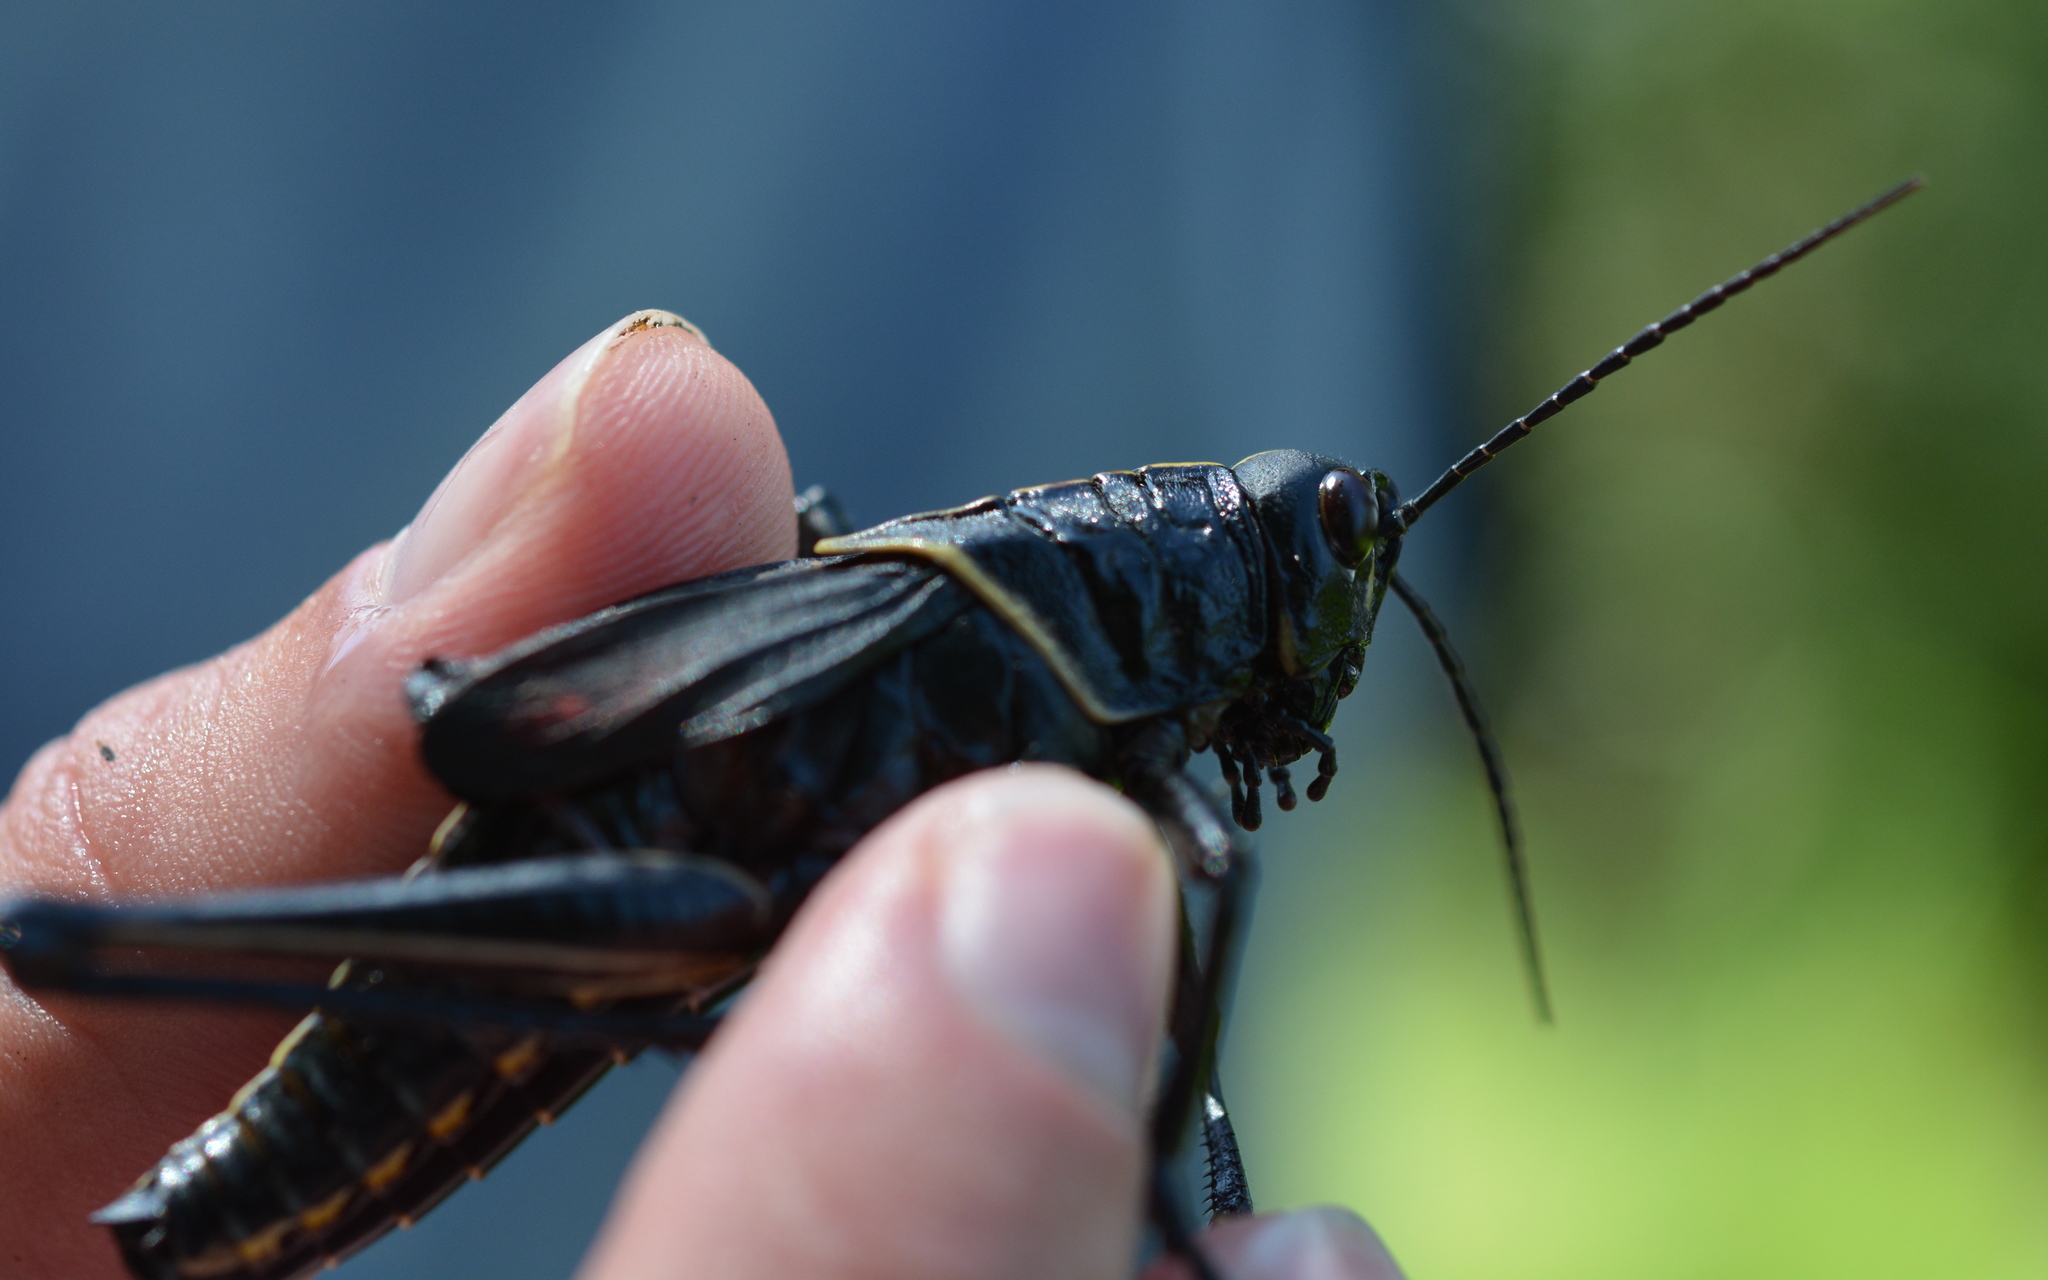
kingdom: Animalia
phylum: Arthropoda
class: Insecta
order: Orthoptera
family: Romaleidae
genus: Romalea
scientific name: Romalea microptera
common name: Eastern lubber grasshopper
